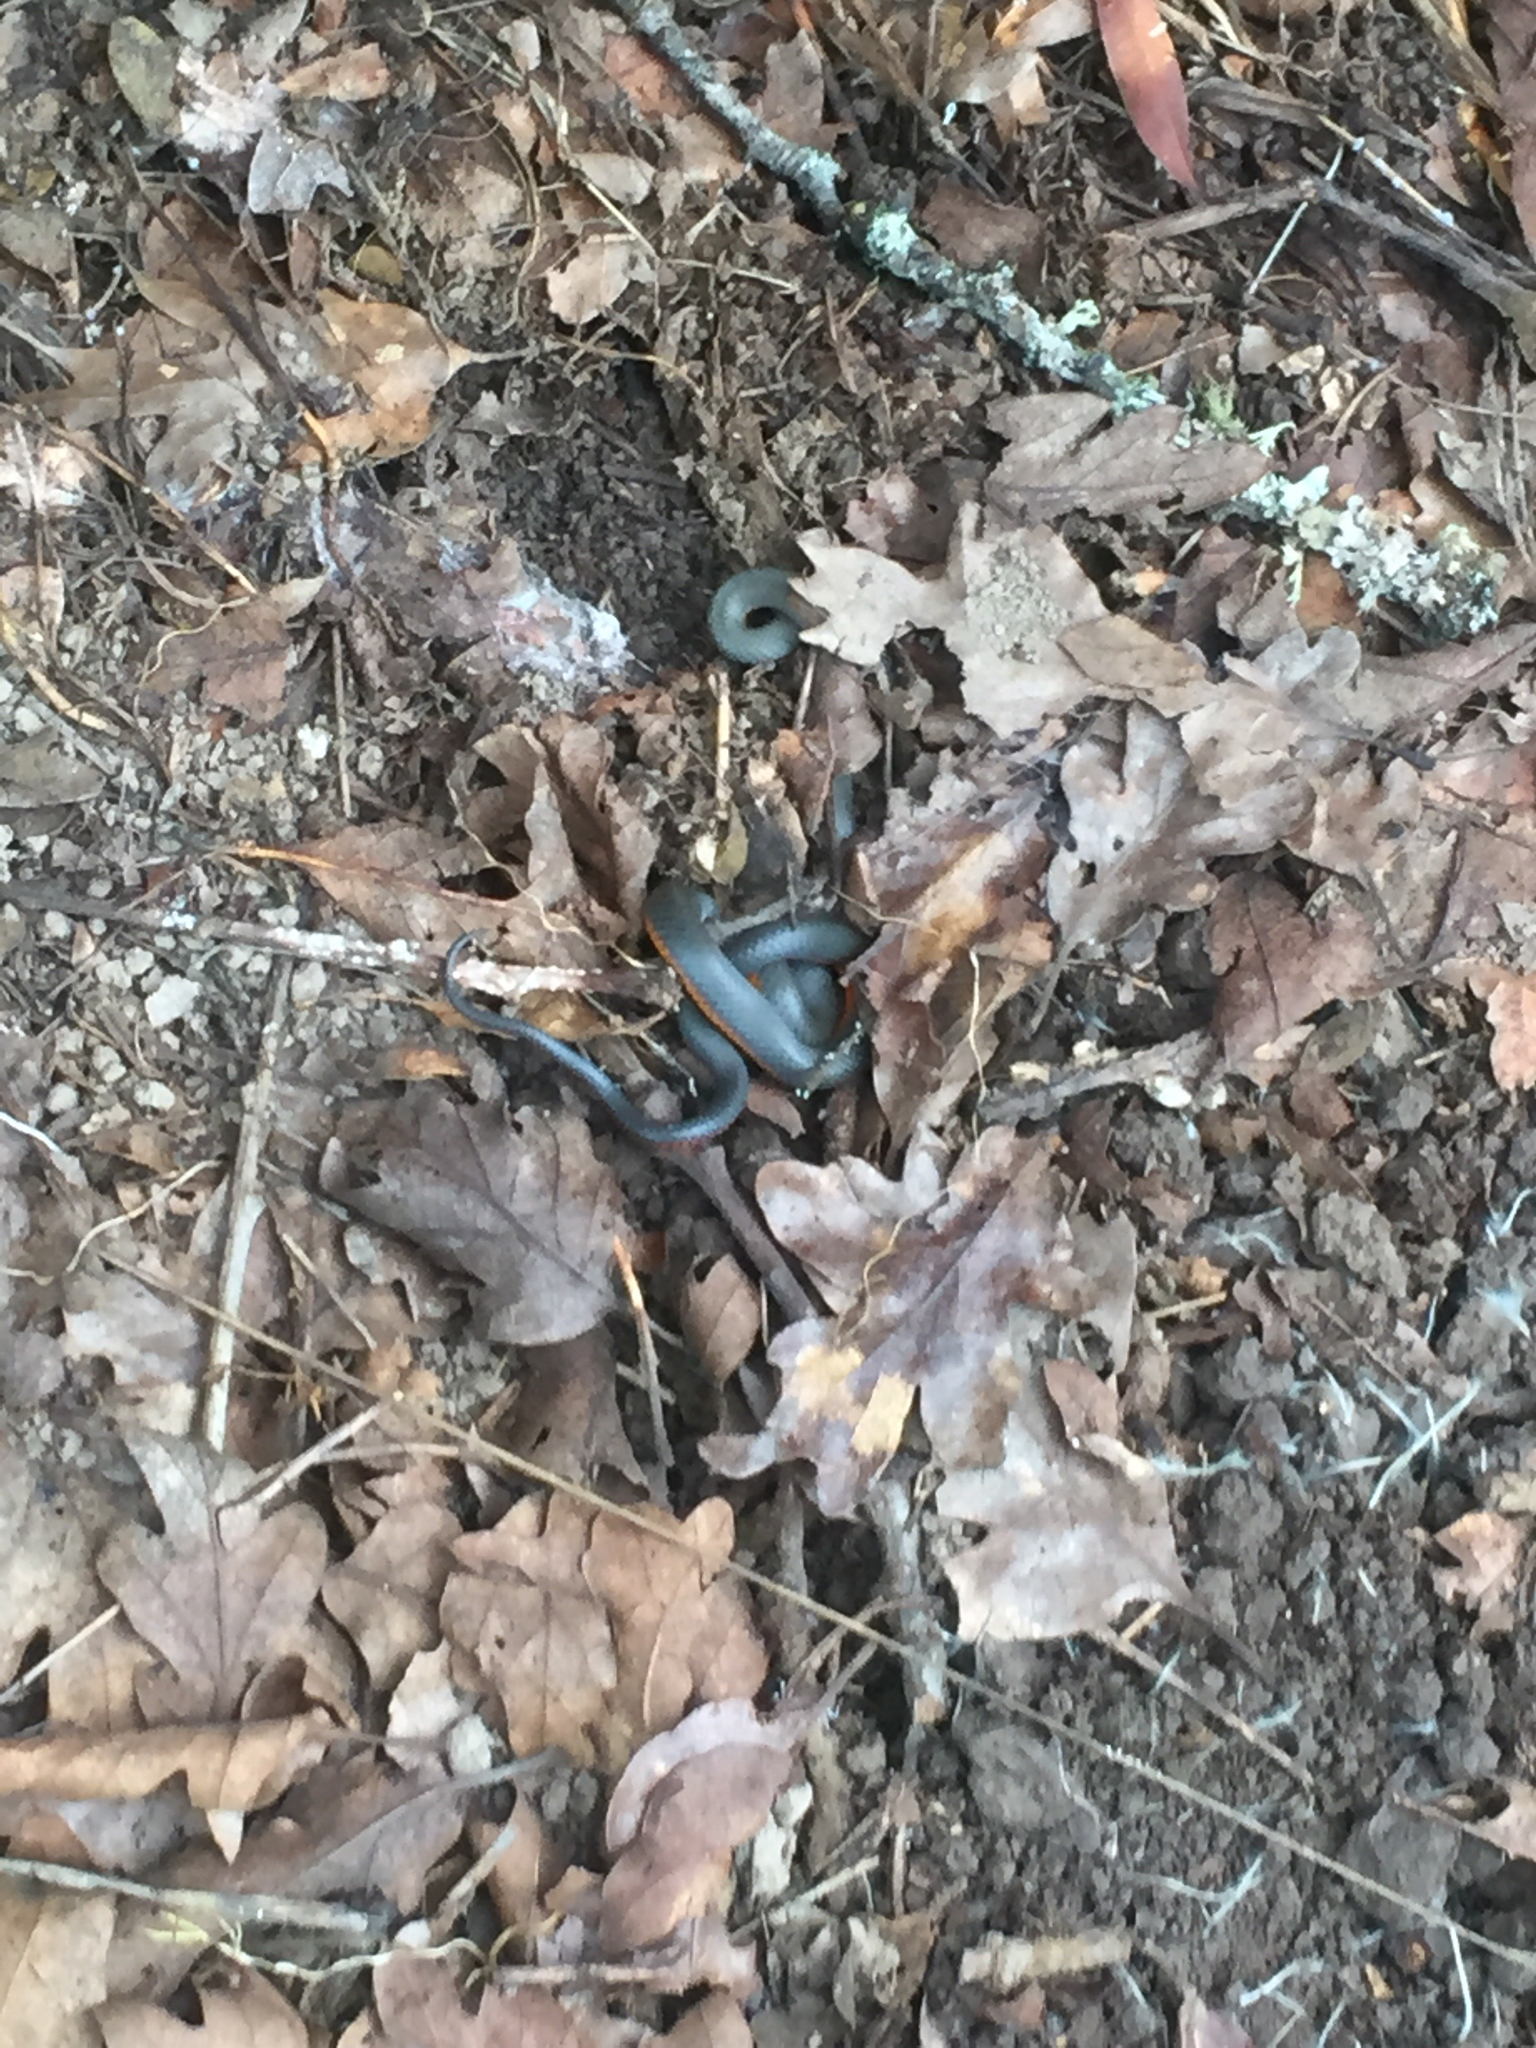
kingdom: Animalia
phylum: Chordata
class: Squamata
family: Colubridae
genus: Diadophis
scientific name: Diadophis punctatus
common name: Ringneck snake
